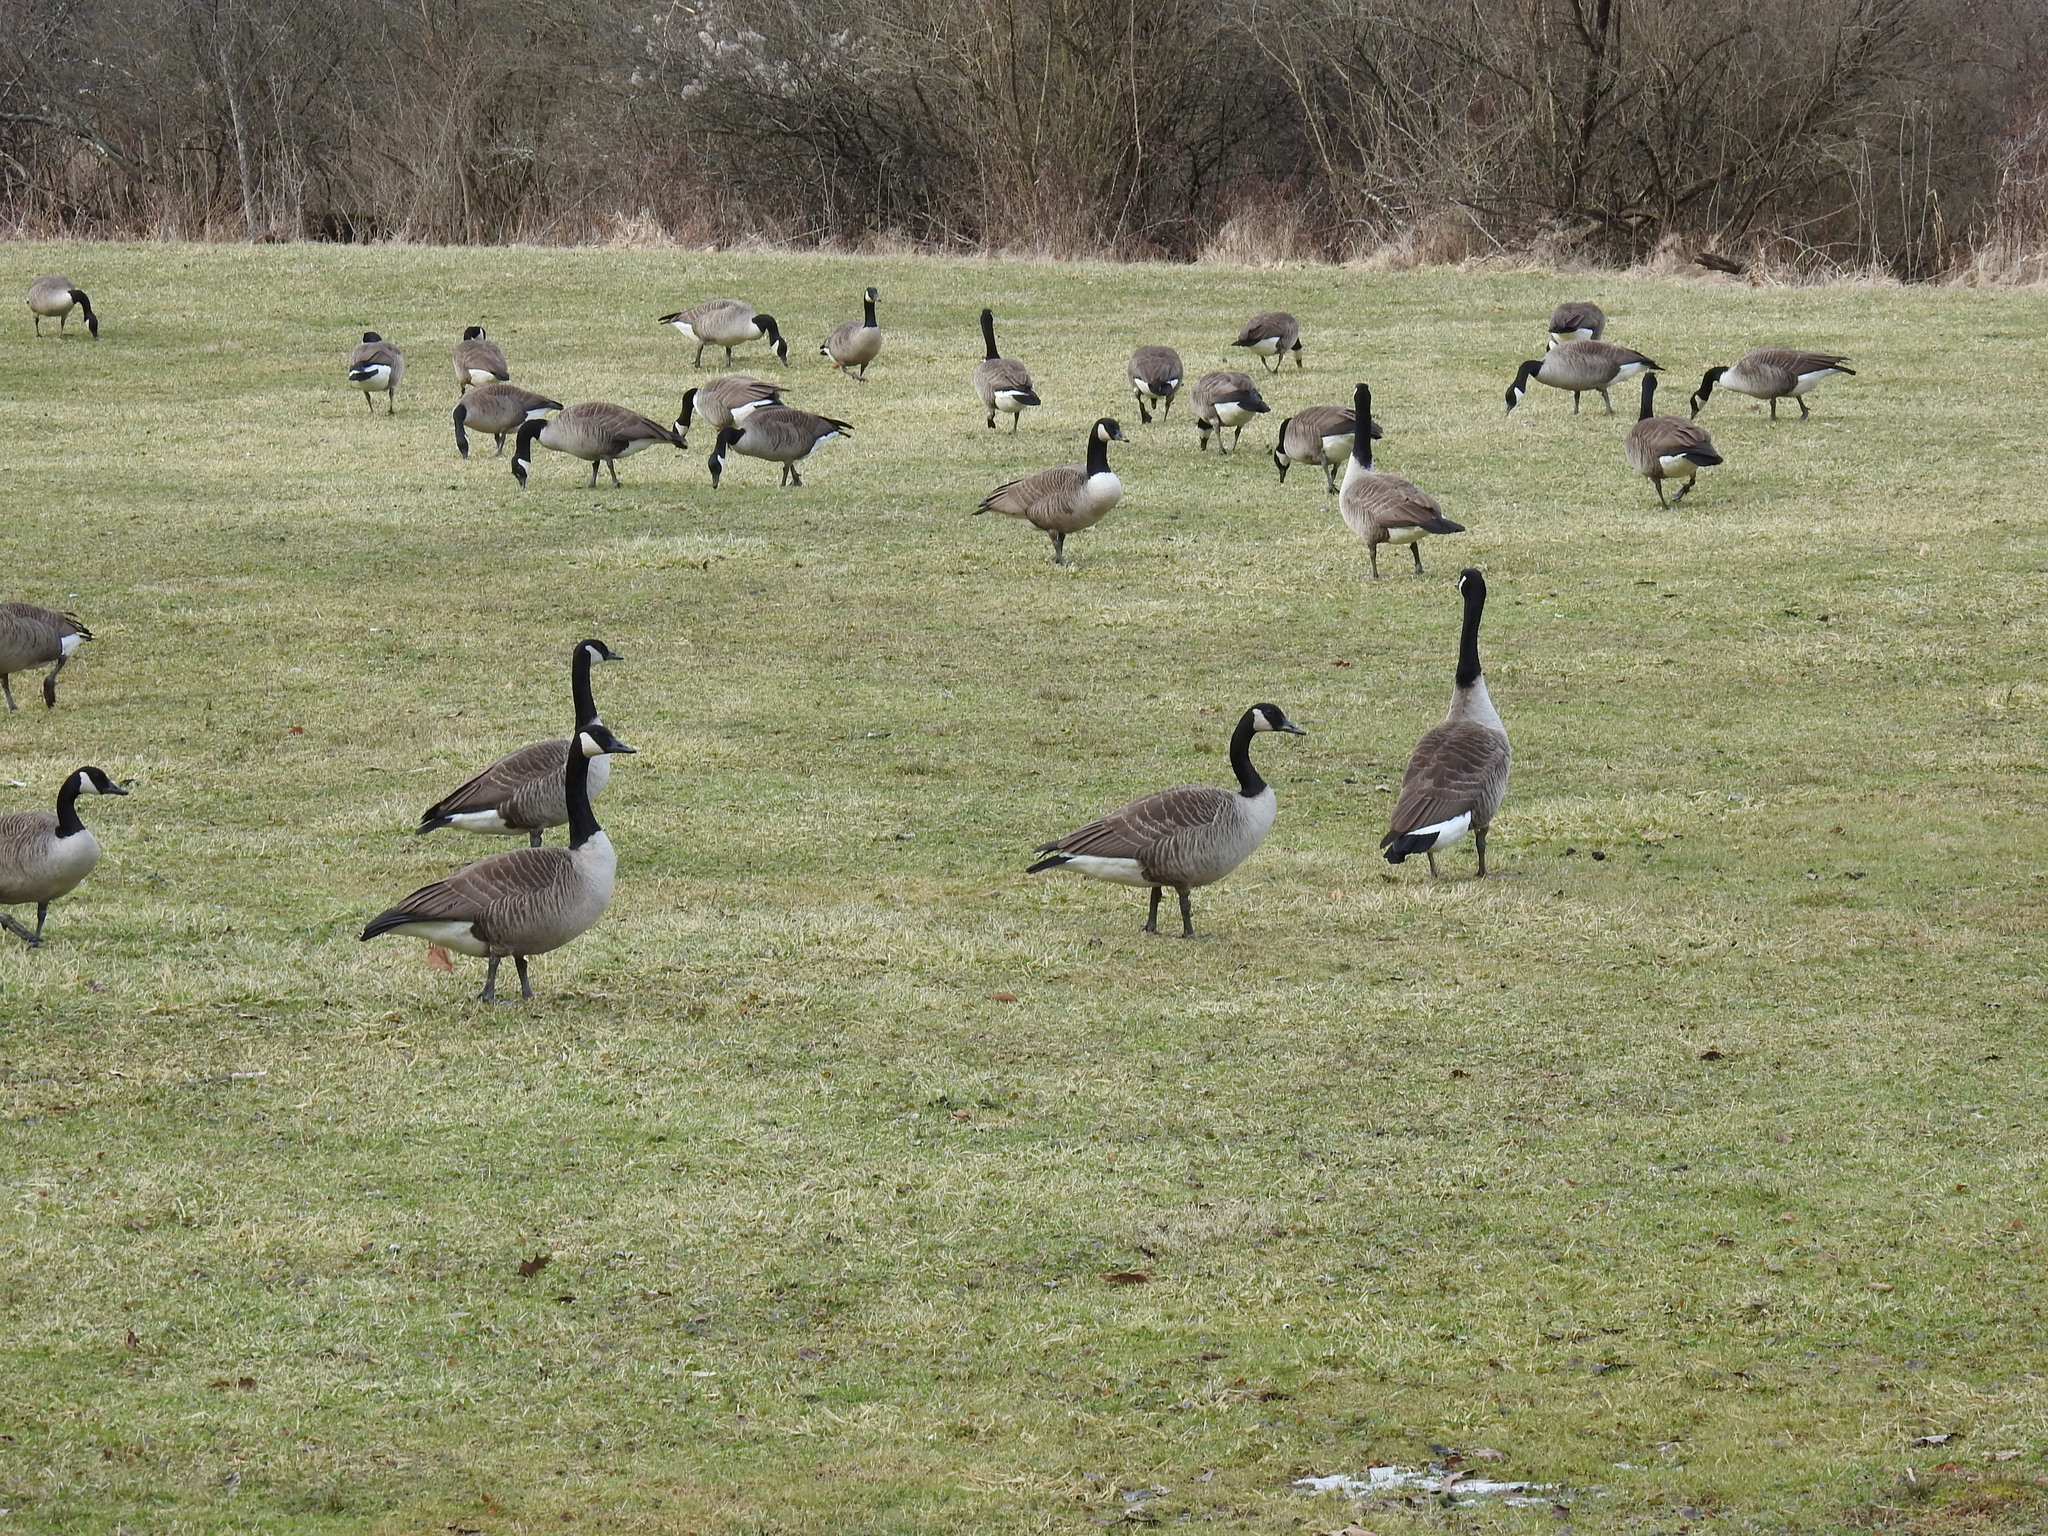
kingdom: Animalia
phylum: Chordata
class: Aves
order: Anseriformes
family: Anatidae
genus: Branta
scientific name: Branta canadensis
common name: Canada goose
